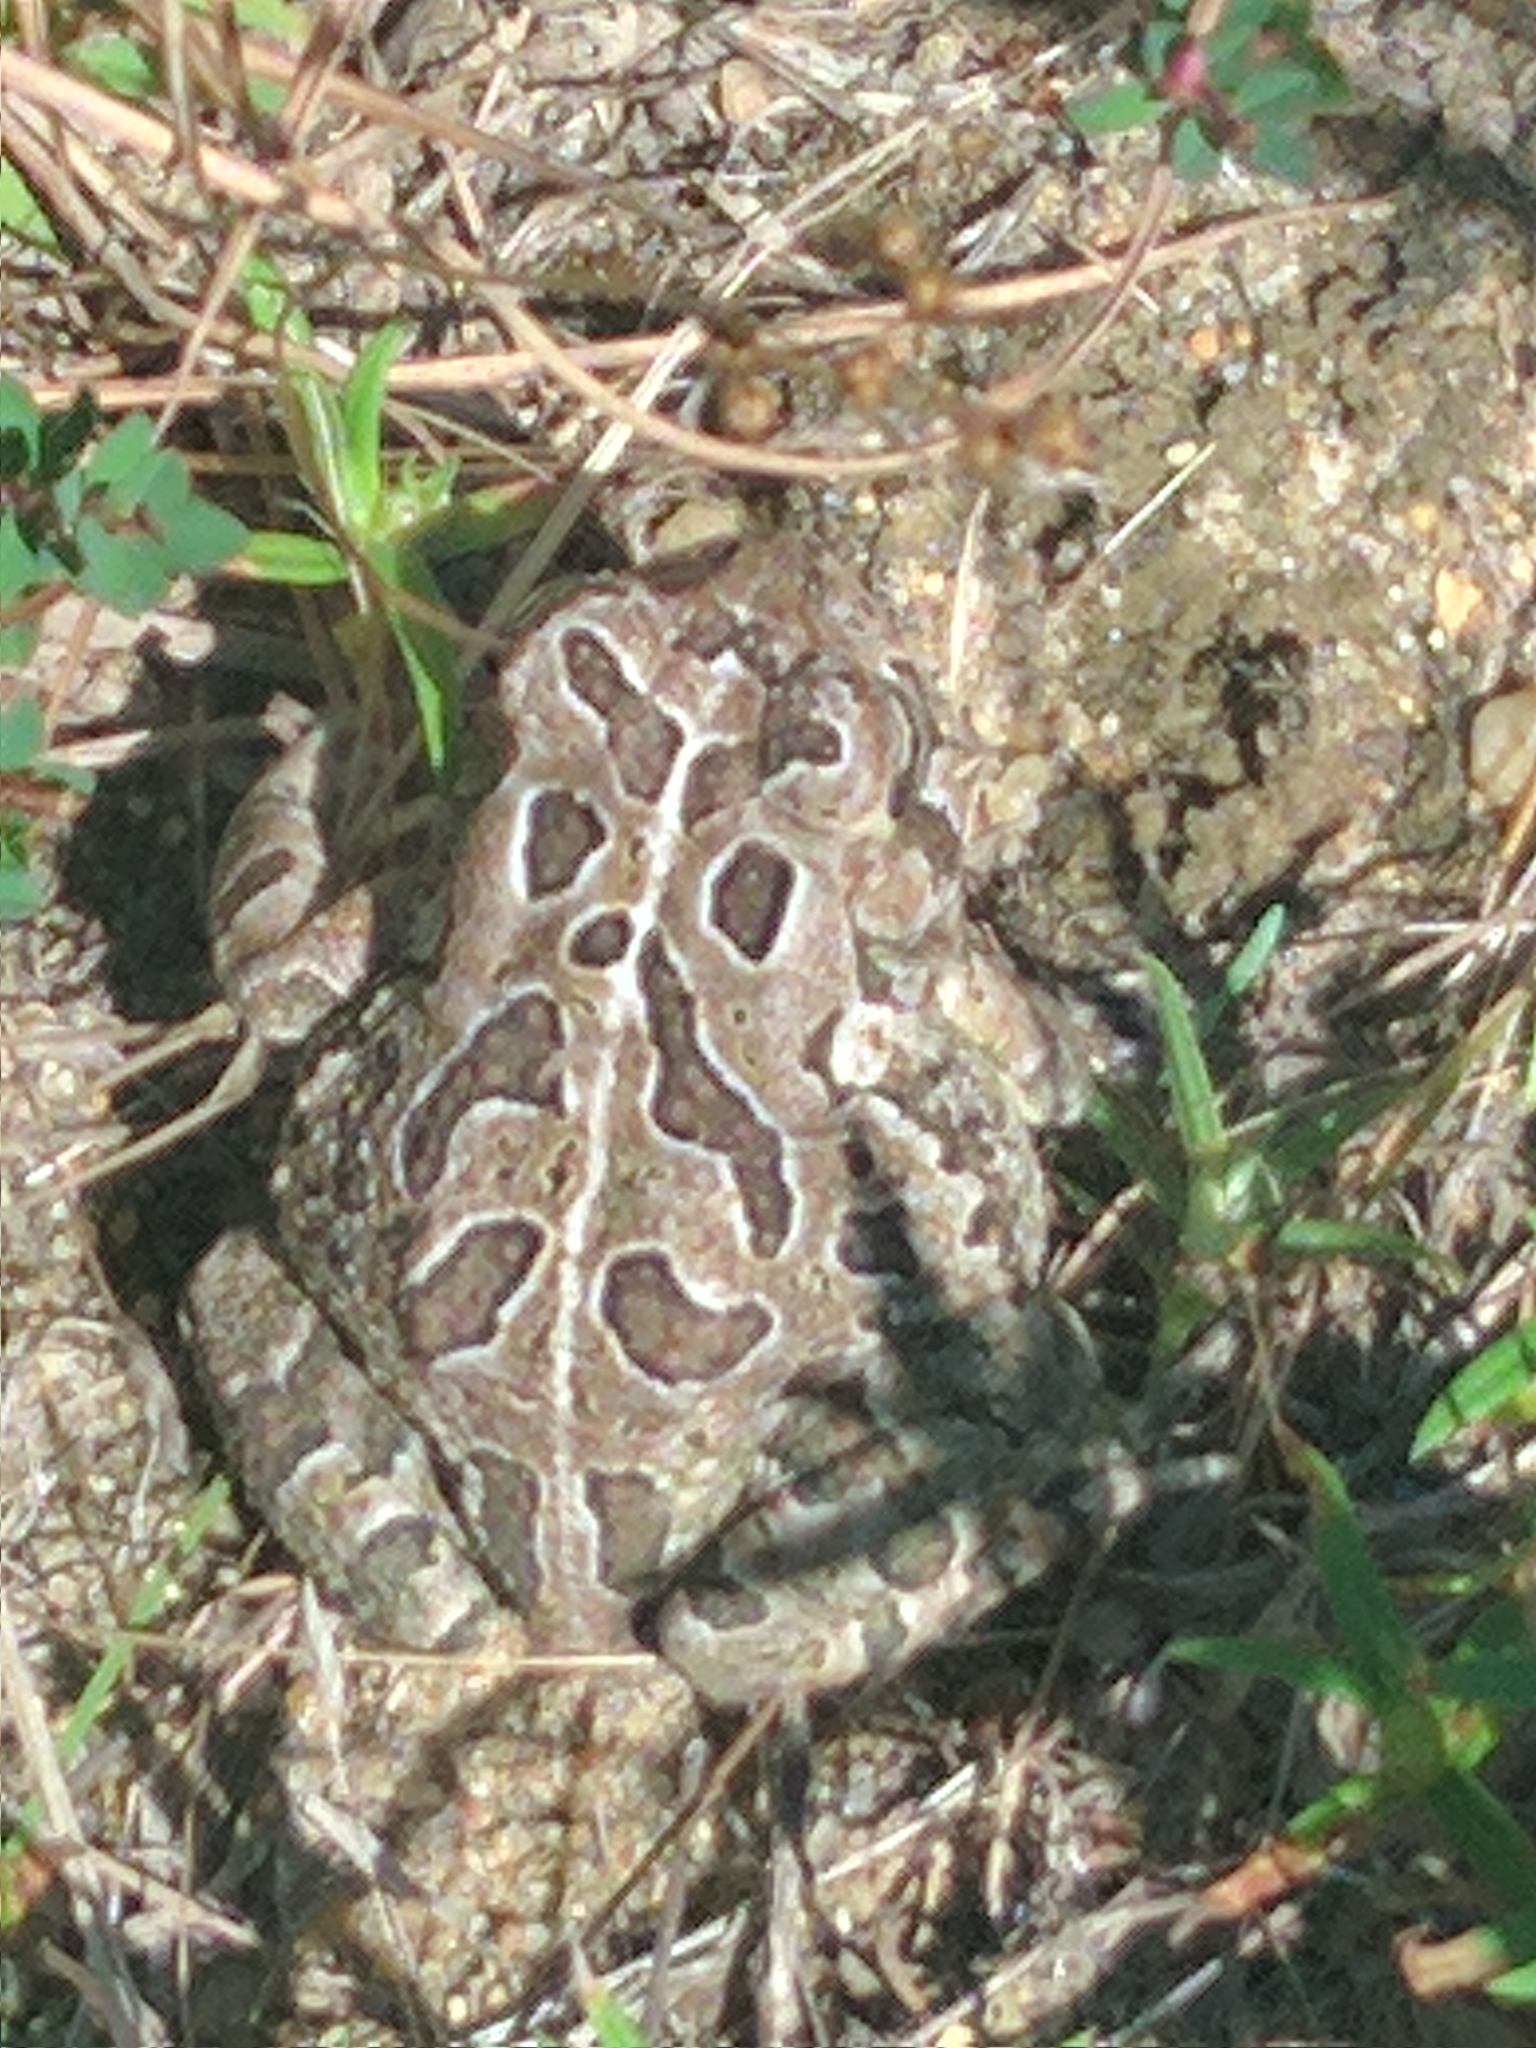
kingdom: Animalia
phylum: Chordata
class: Amphibia
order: Anura
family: Bufonidae
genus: Anaxyrus
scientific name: Anaxyrus fowleri
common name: Fowler's toad
